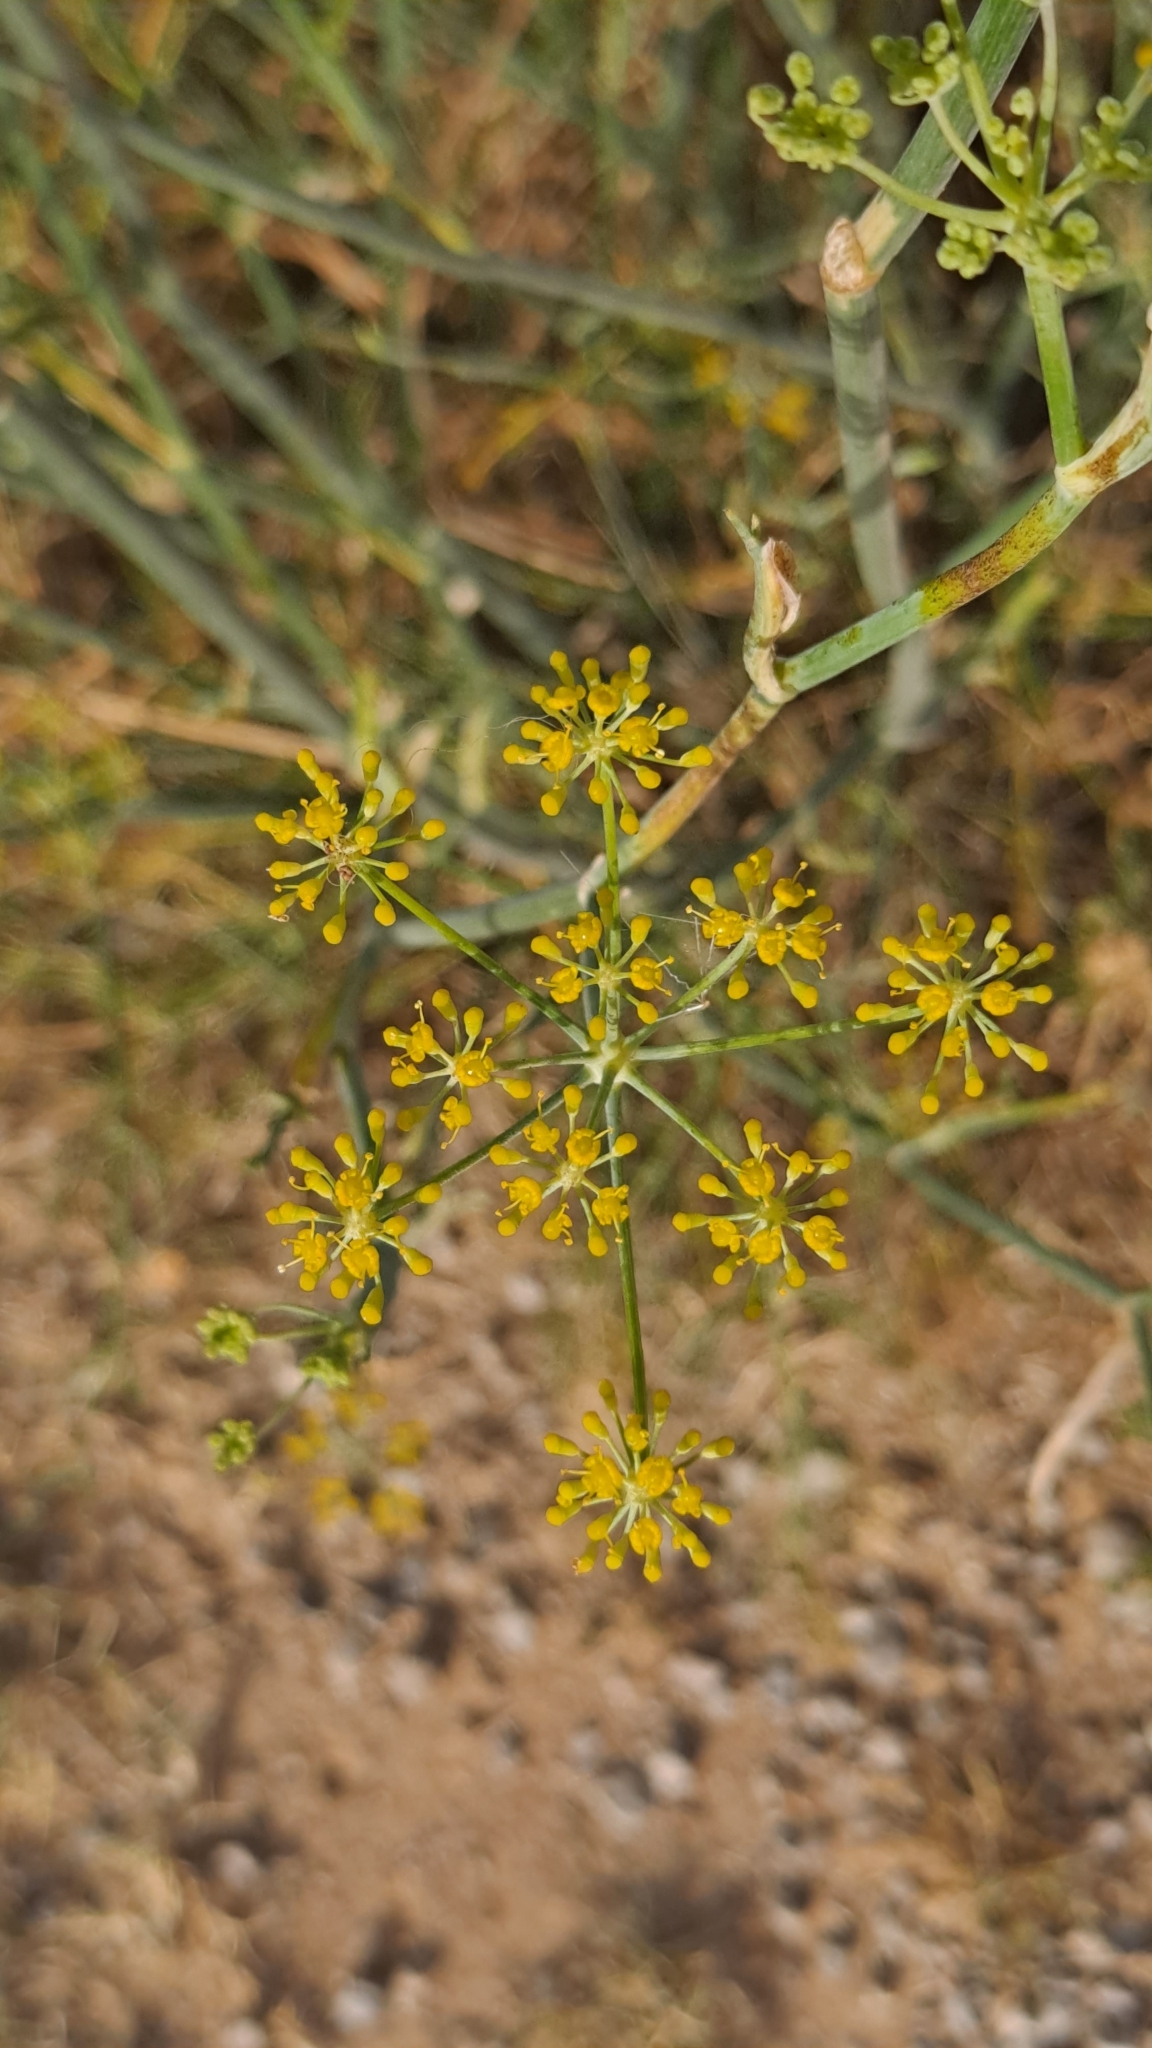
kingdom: Plantae
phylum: Tracheophyta
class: Magnoliopsida
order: Apiales
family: Apiaceae
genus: Foeniculum
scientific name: Foeniculum vulgare
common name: Fennel
